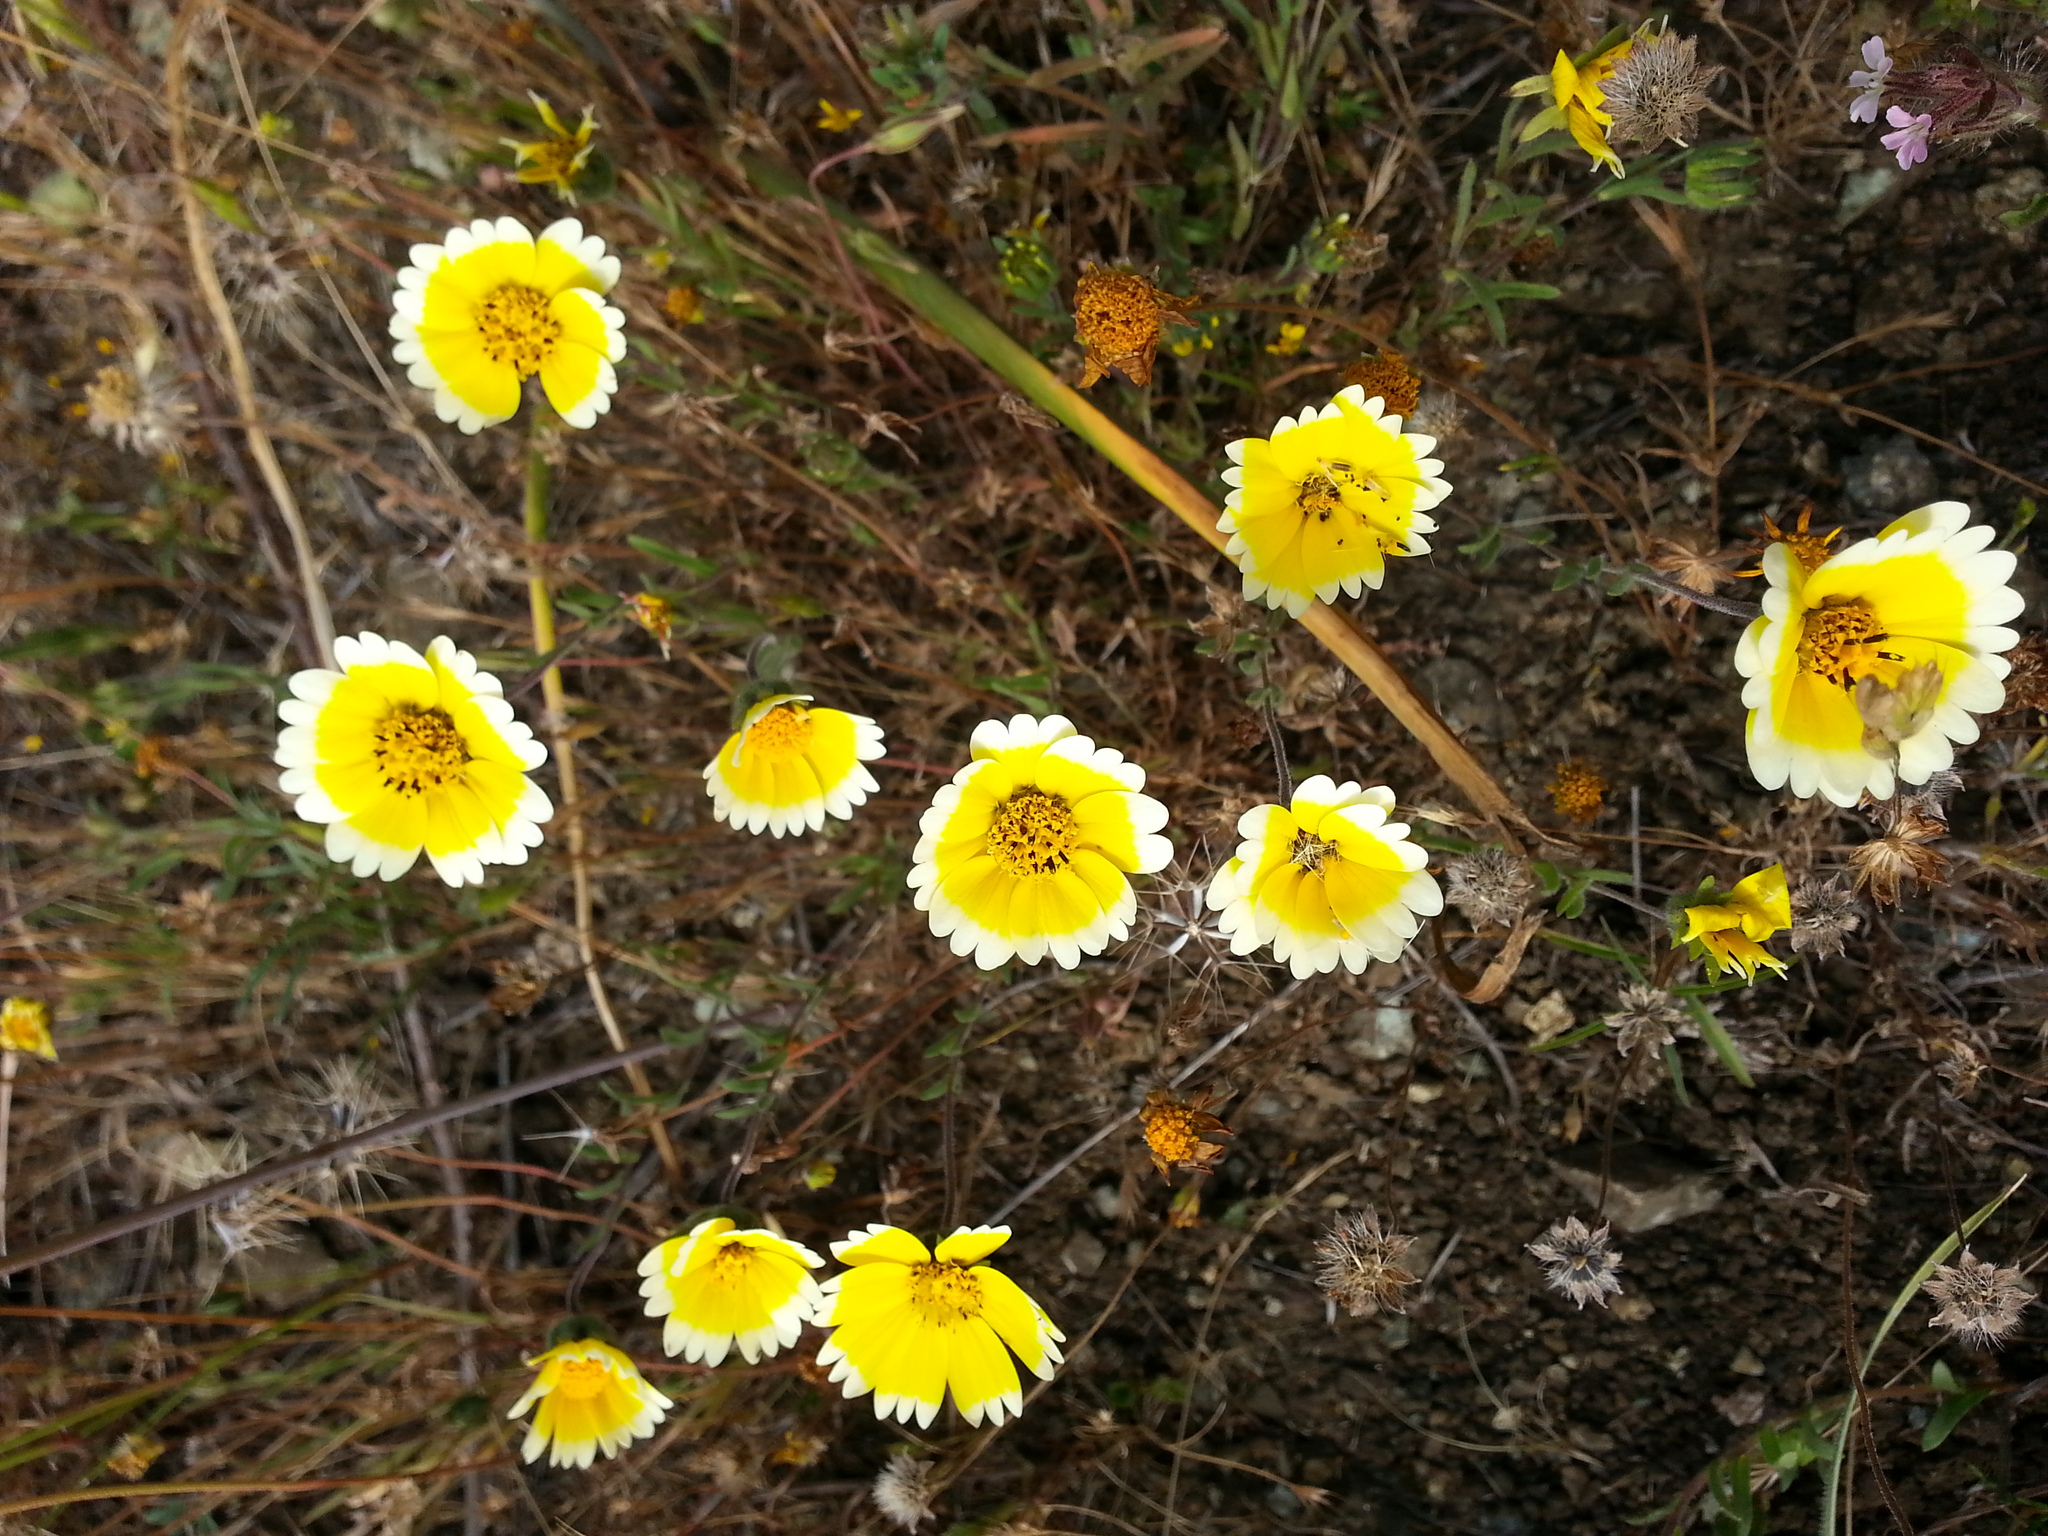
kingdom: Plantae
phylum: Tracheophyta
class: Magnoliopsida
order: Asterales
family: Asteraceae
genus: Layia
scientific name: Layia platyglossa
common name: Tidy-tips
